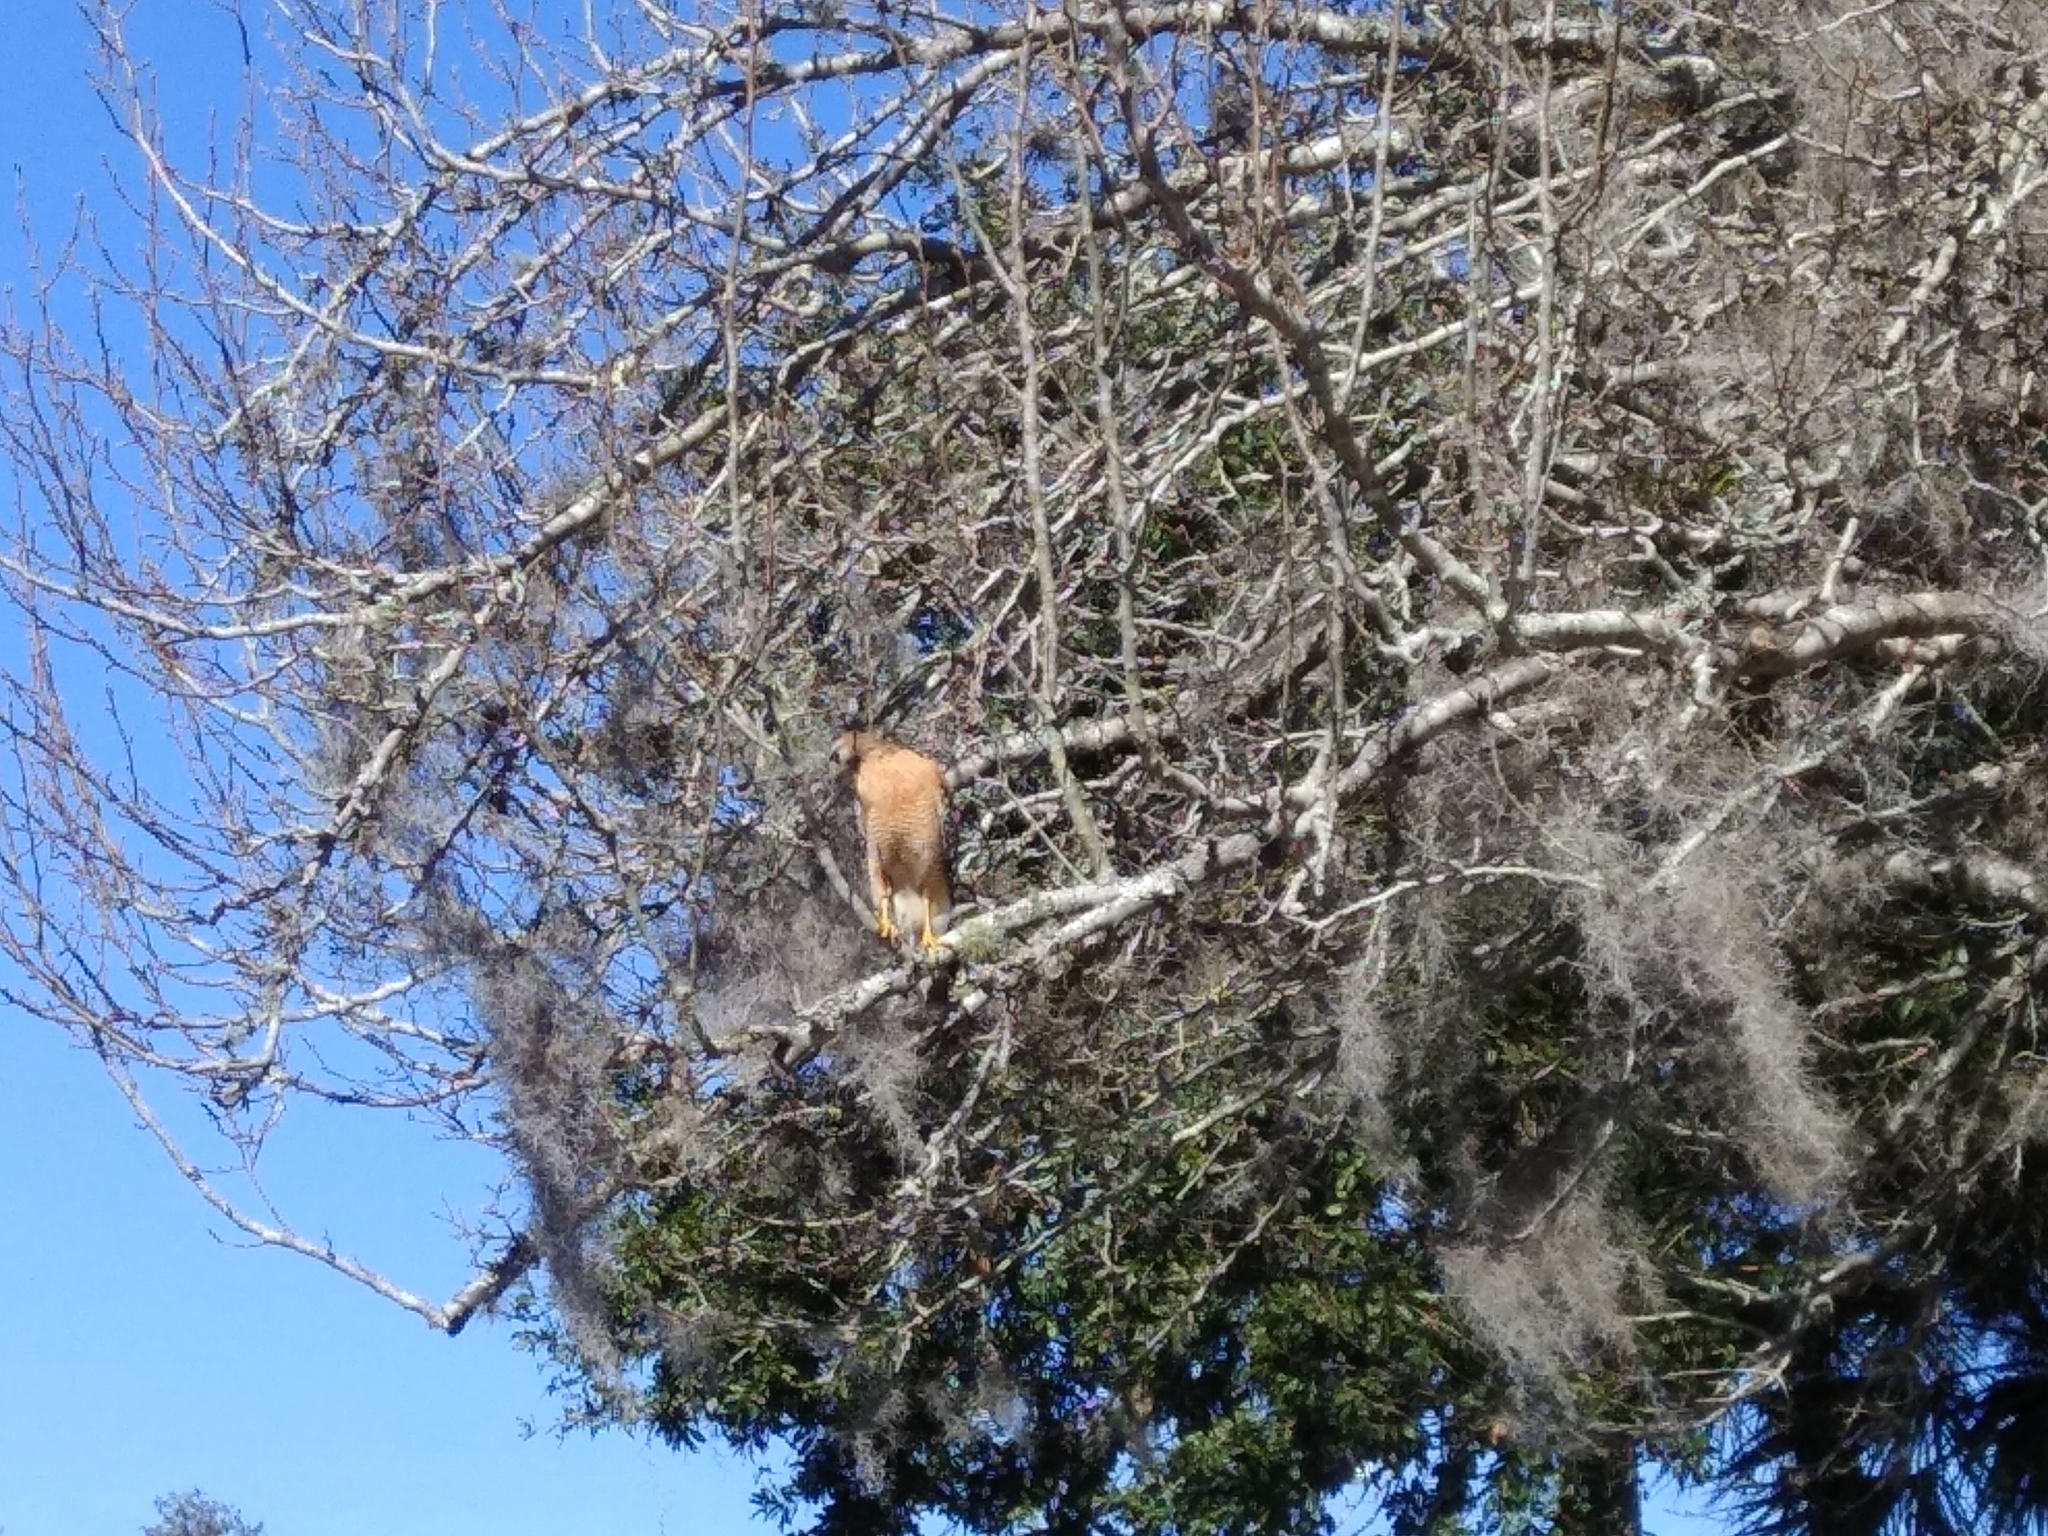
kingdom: Animalia
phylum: Chordata
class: Aves
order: Accipitriformes
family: Accipitridae
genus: Buteo
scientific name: Buteo lineatus
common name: Red-shouldered hawk
